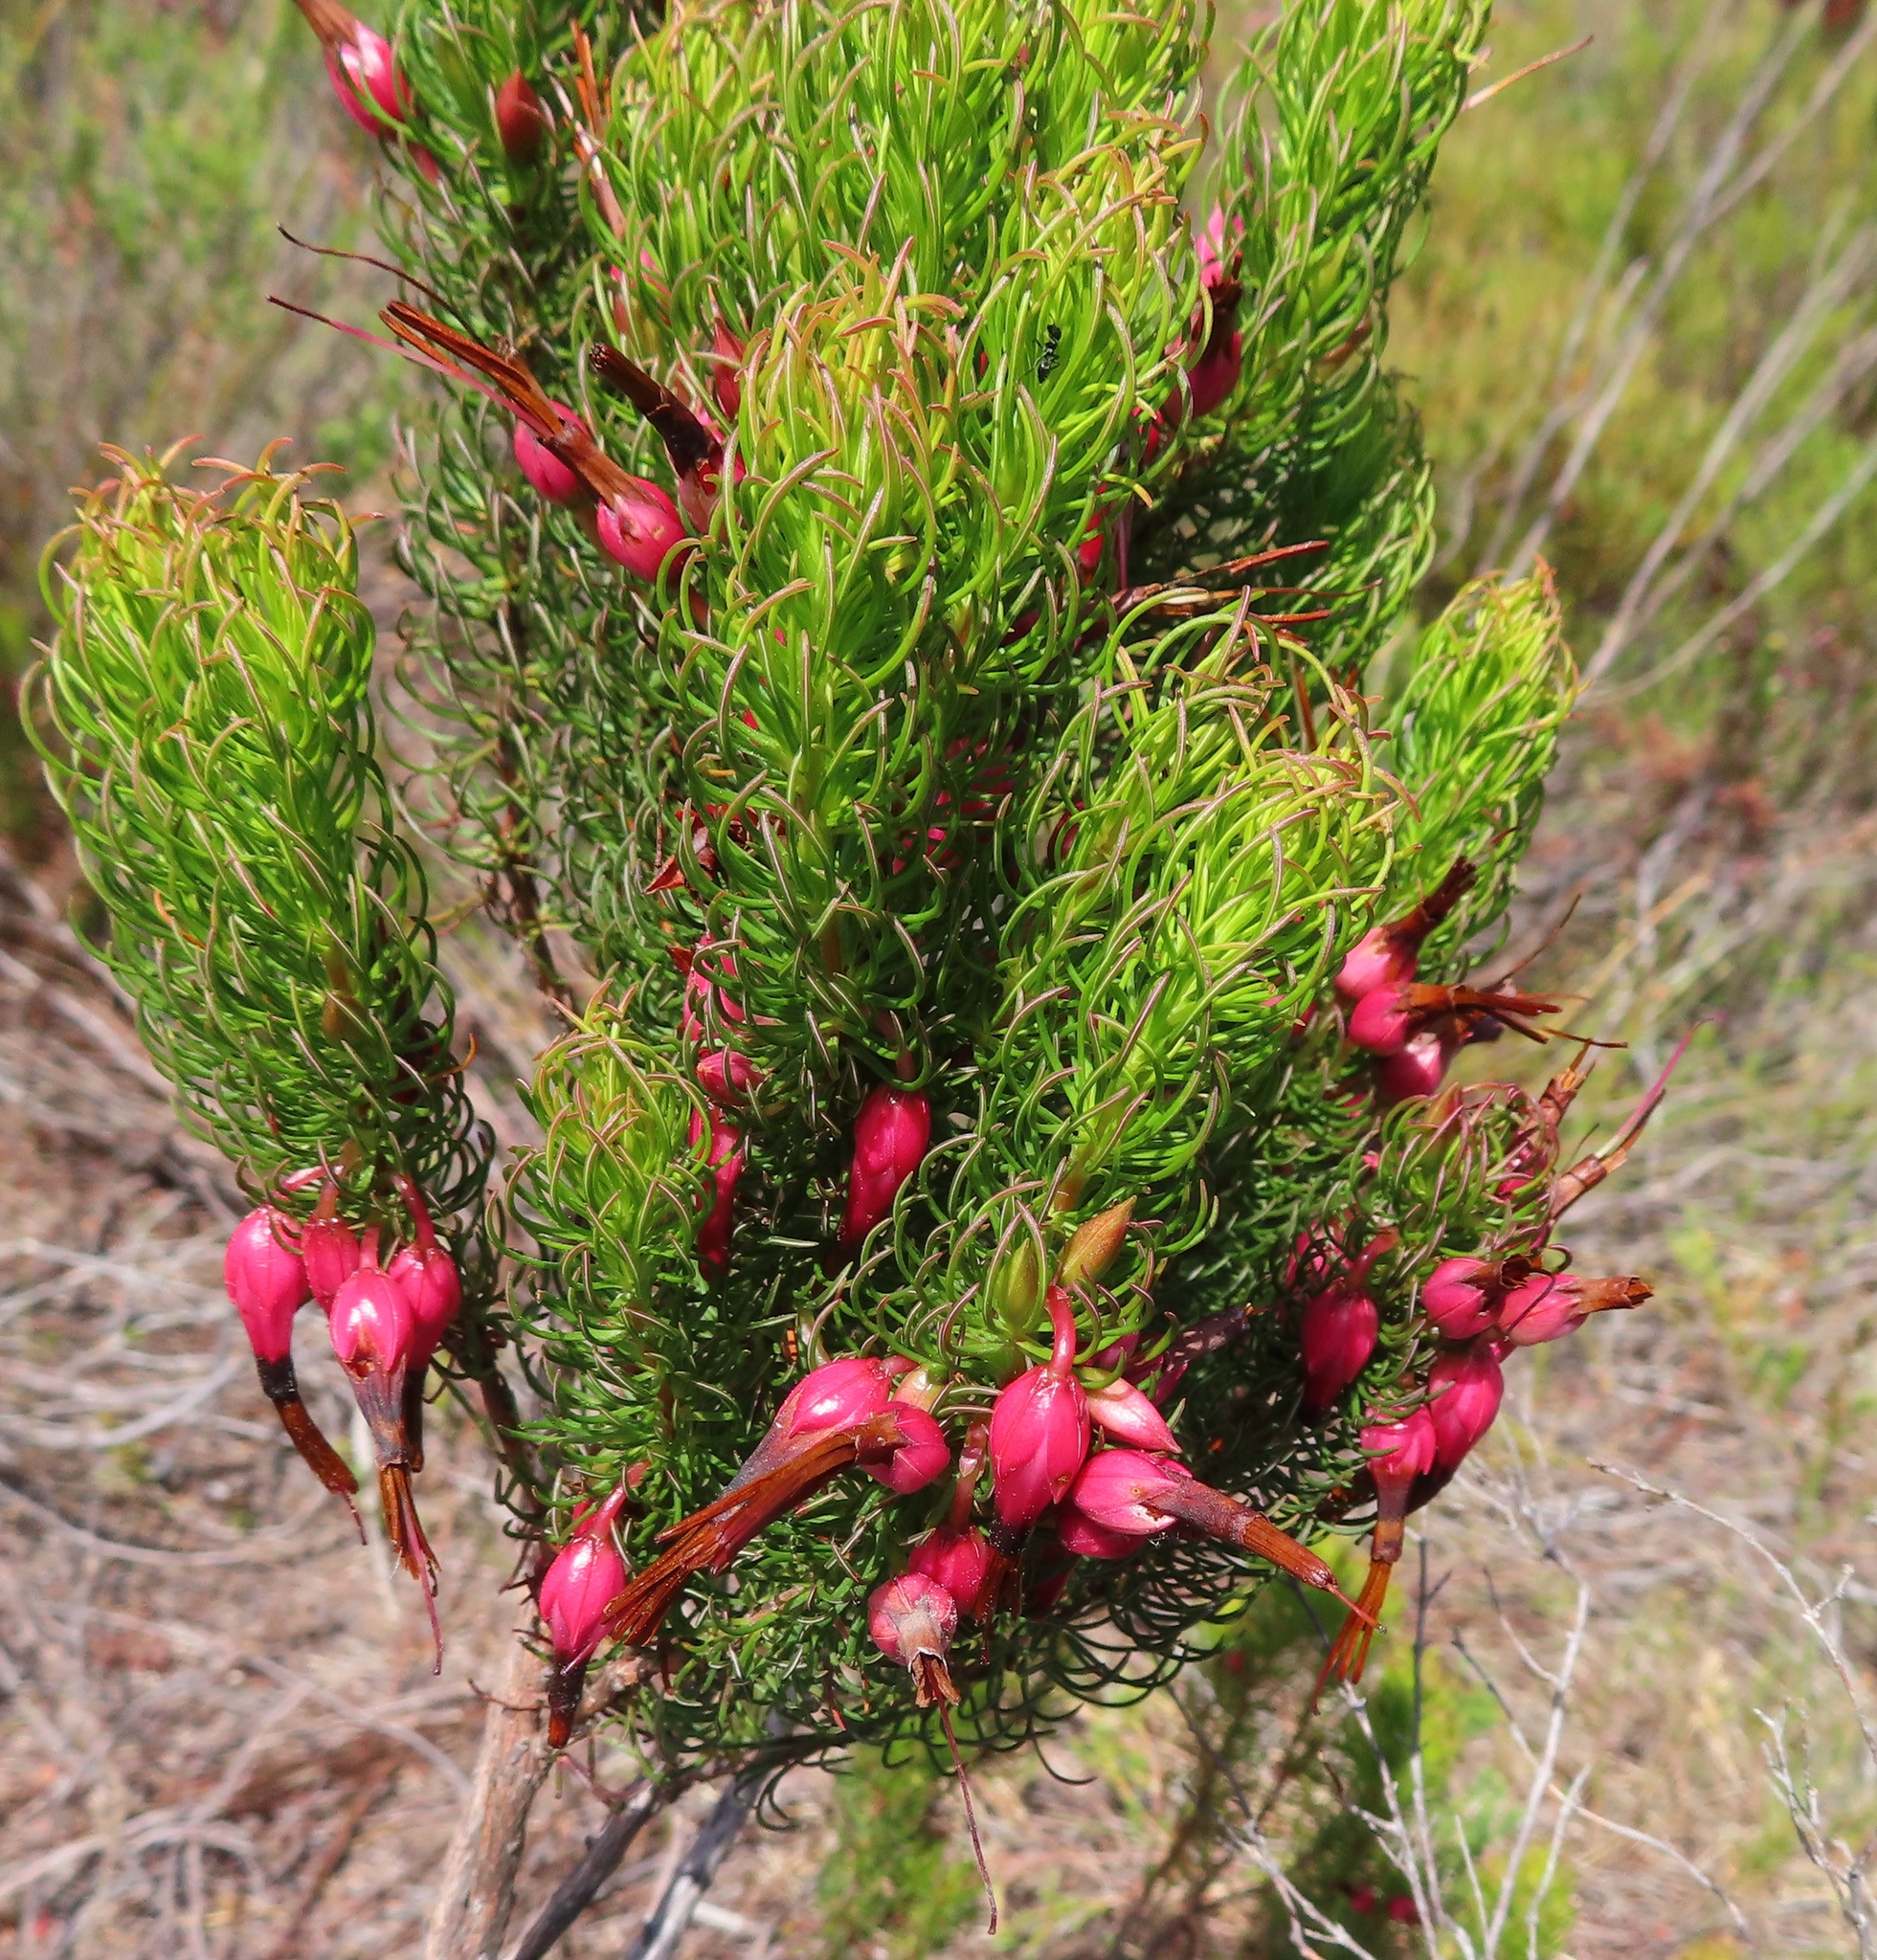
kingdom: Plantae
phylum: Tracheophyta
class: Magnoliopsida
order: Ericales
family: Ericaceae
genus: Erica
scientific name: Erica plukenetii
